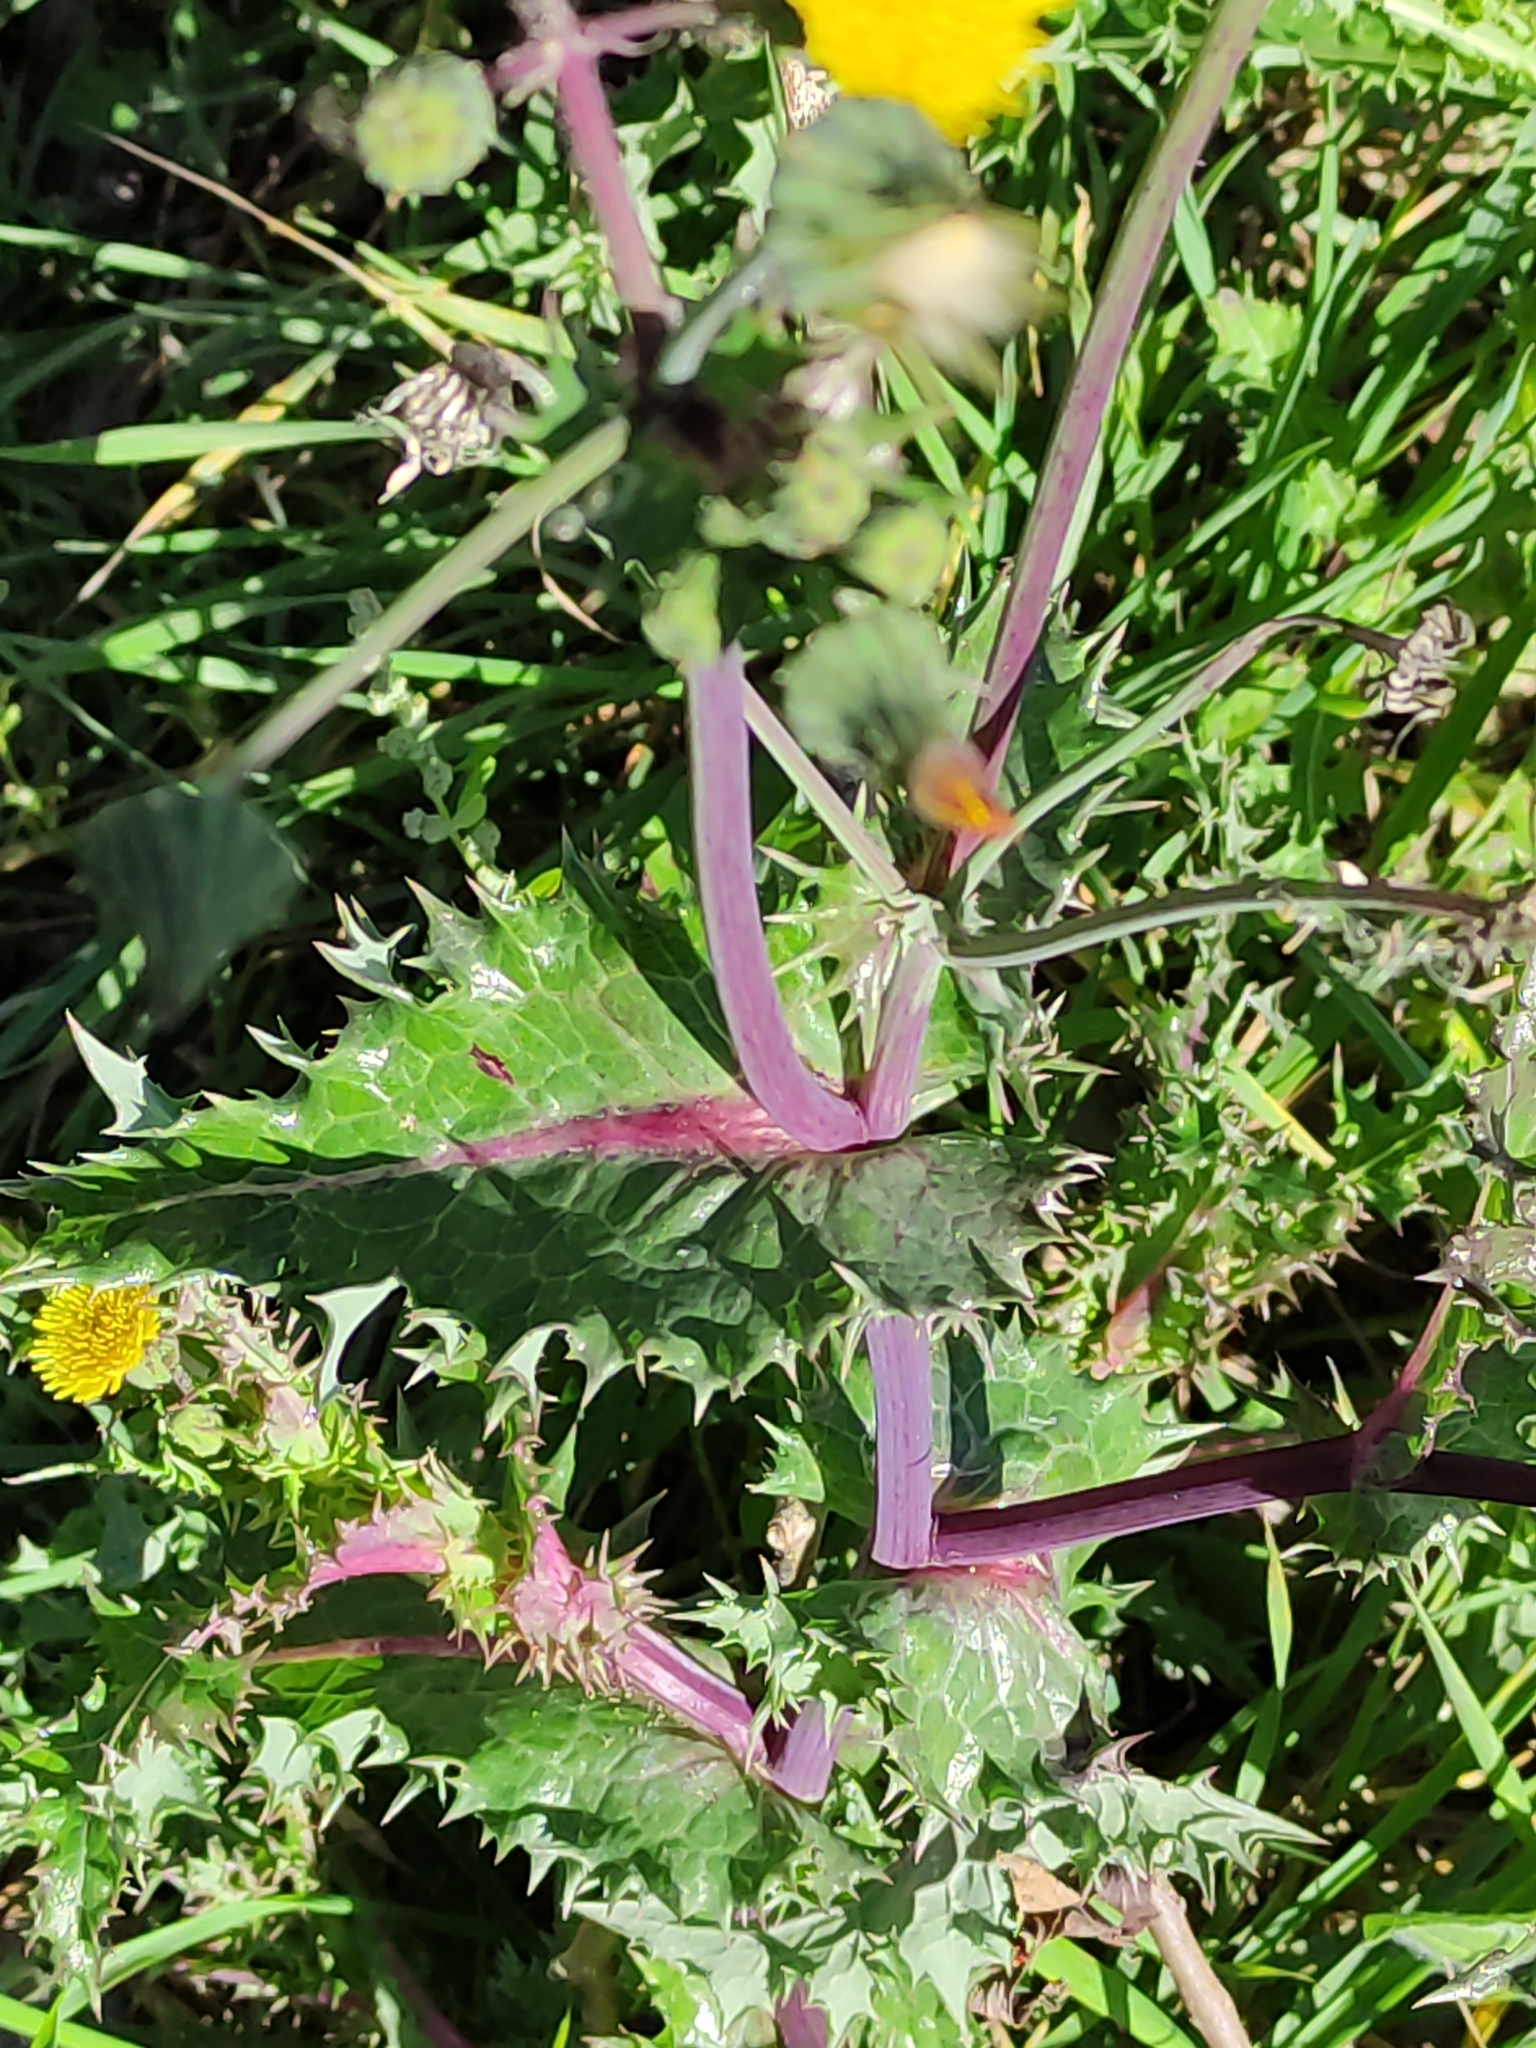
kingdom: Plantae
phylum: Tracheophyta
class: Magnoliopsida
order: Asterales
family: Asteraceae
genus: Sonchus
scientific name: Sonchus asper
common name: Prickly sow-thistle
